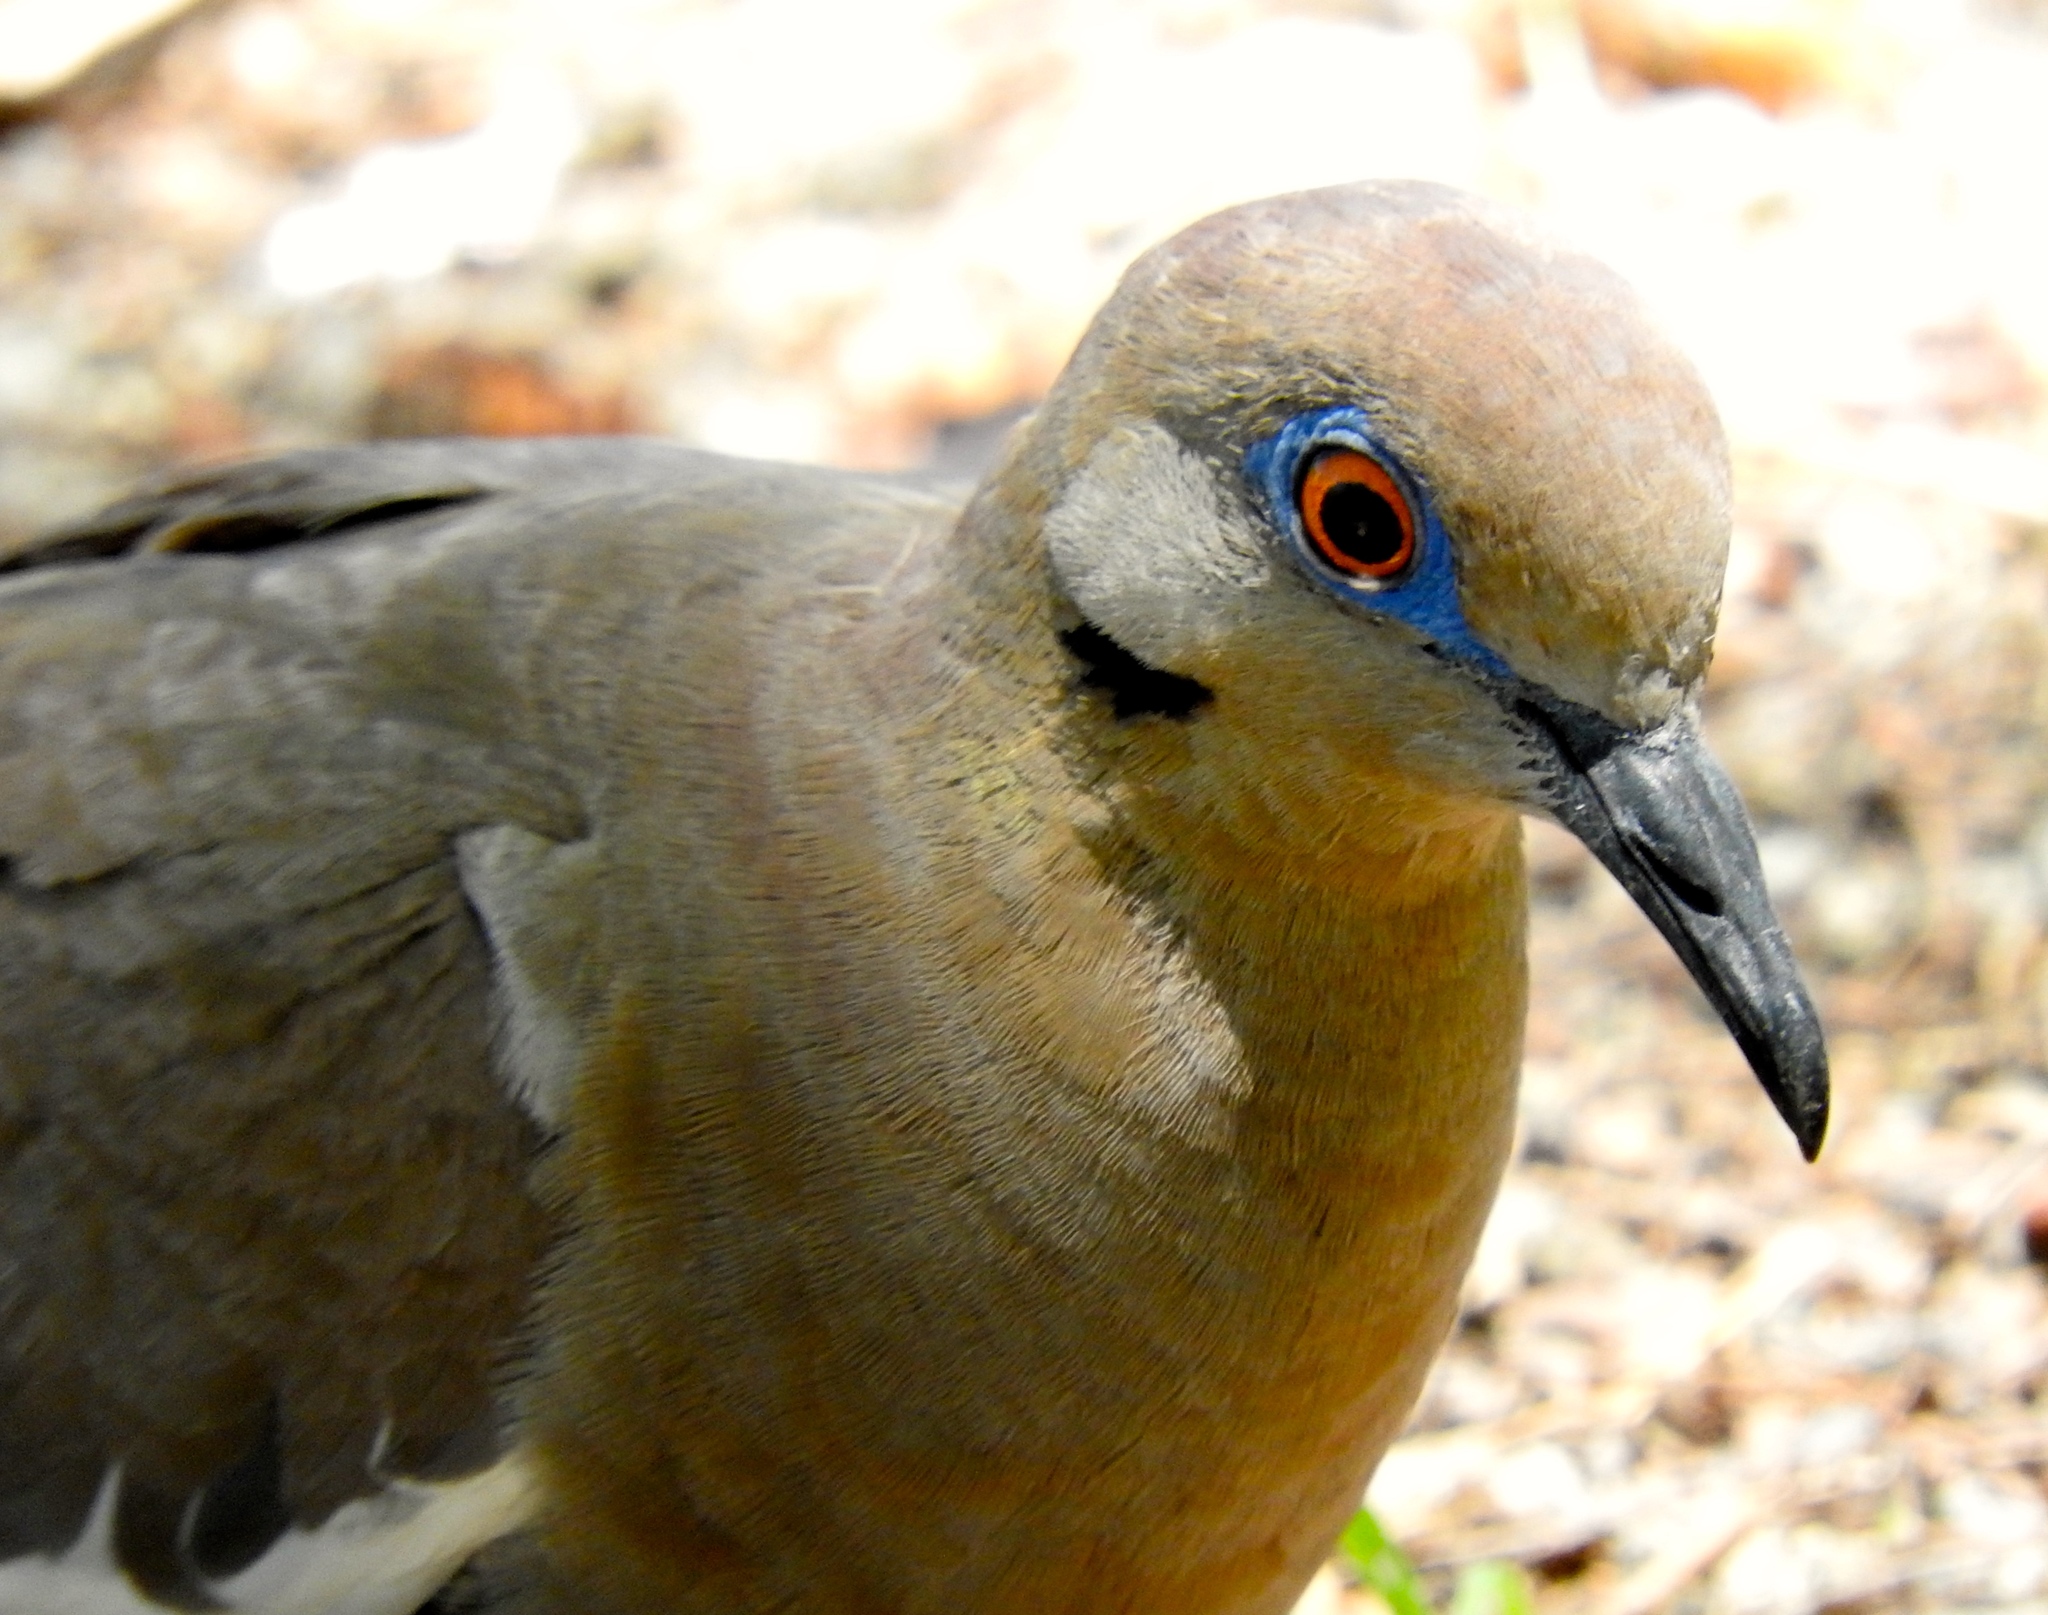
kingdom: Animalia
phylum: Chordata
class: Aves
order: Columbiformes
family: Columbidae
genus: Zenaida
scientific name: Zenaida asiatica
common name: White-winged dove
